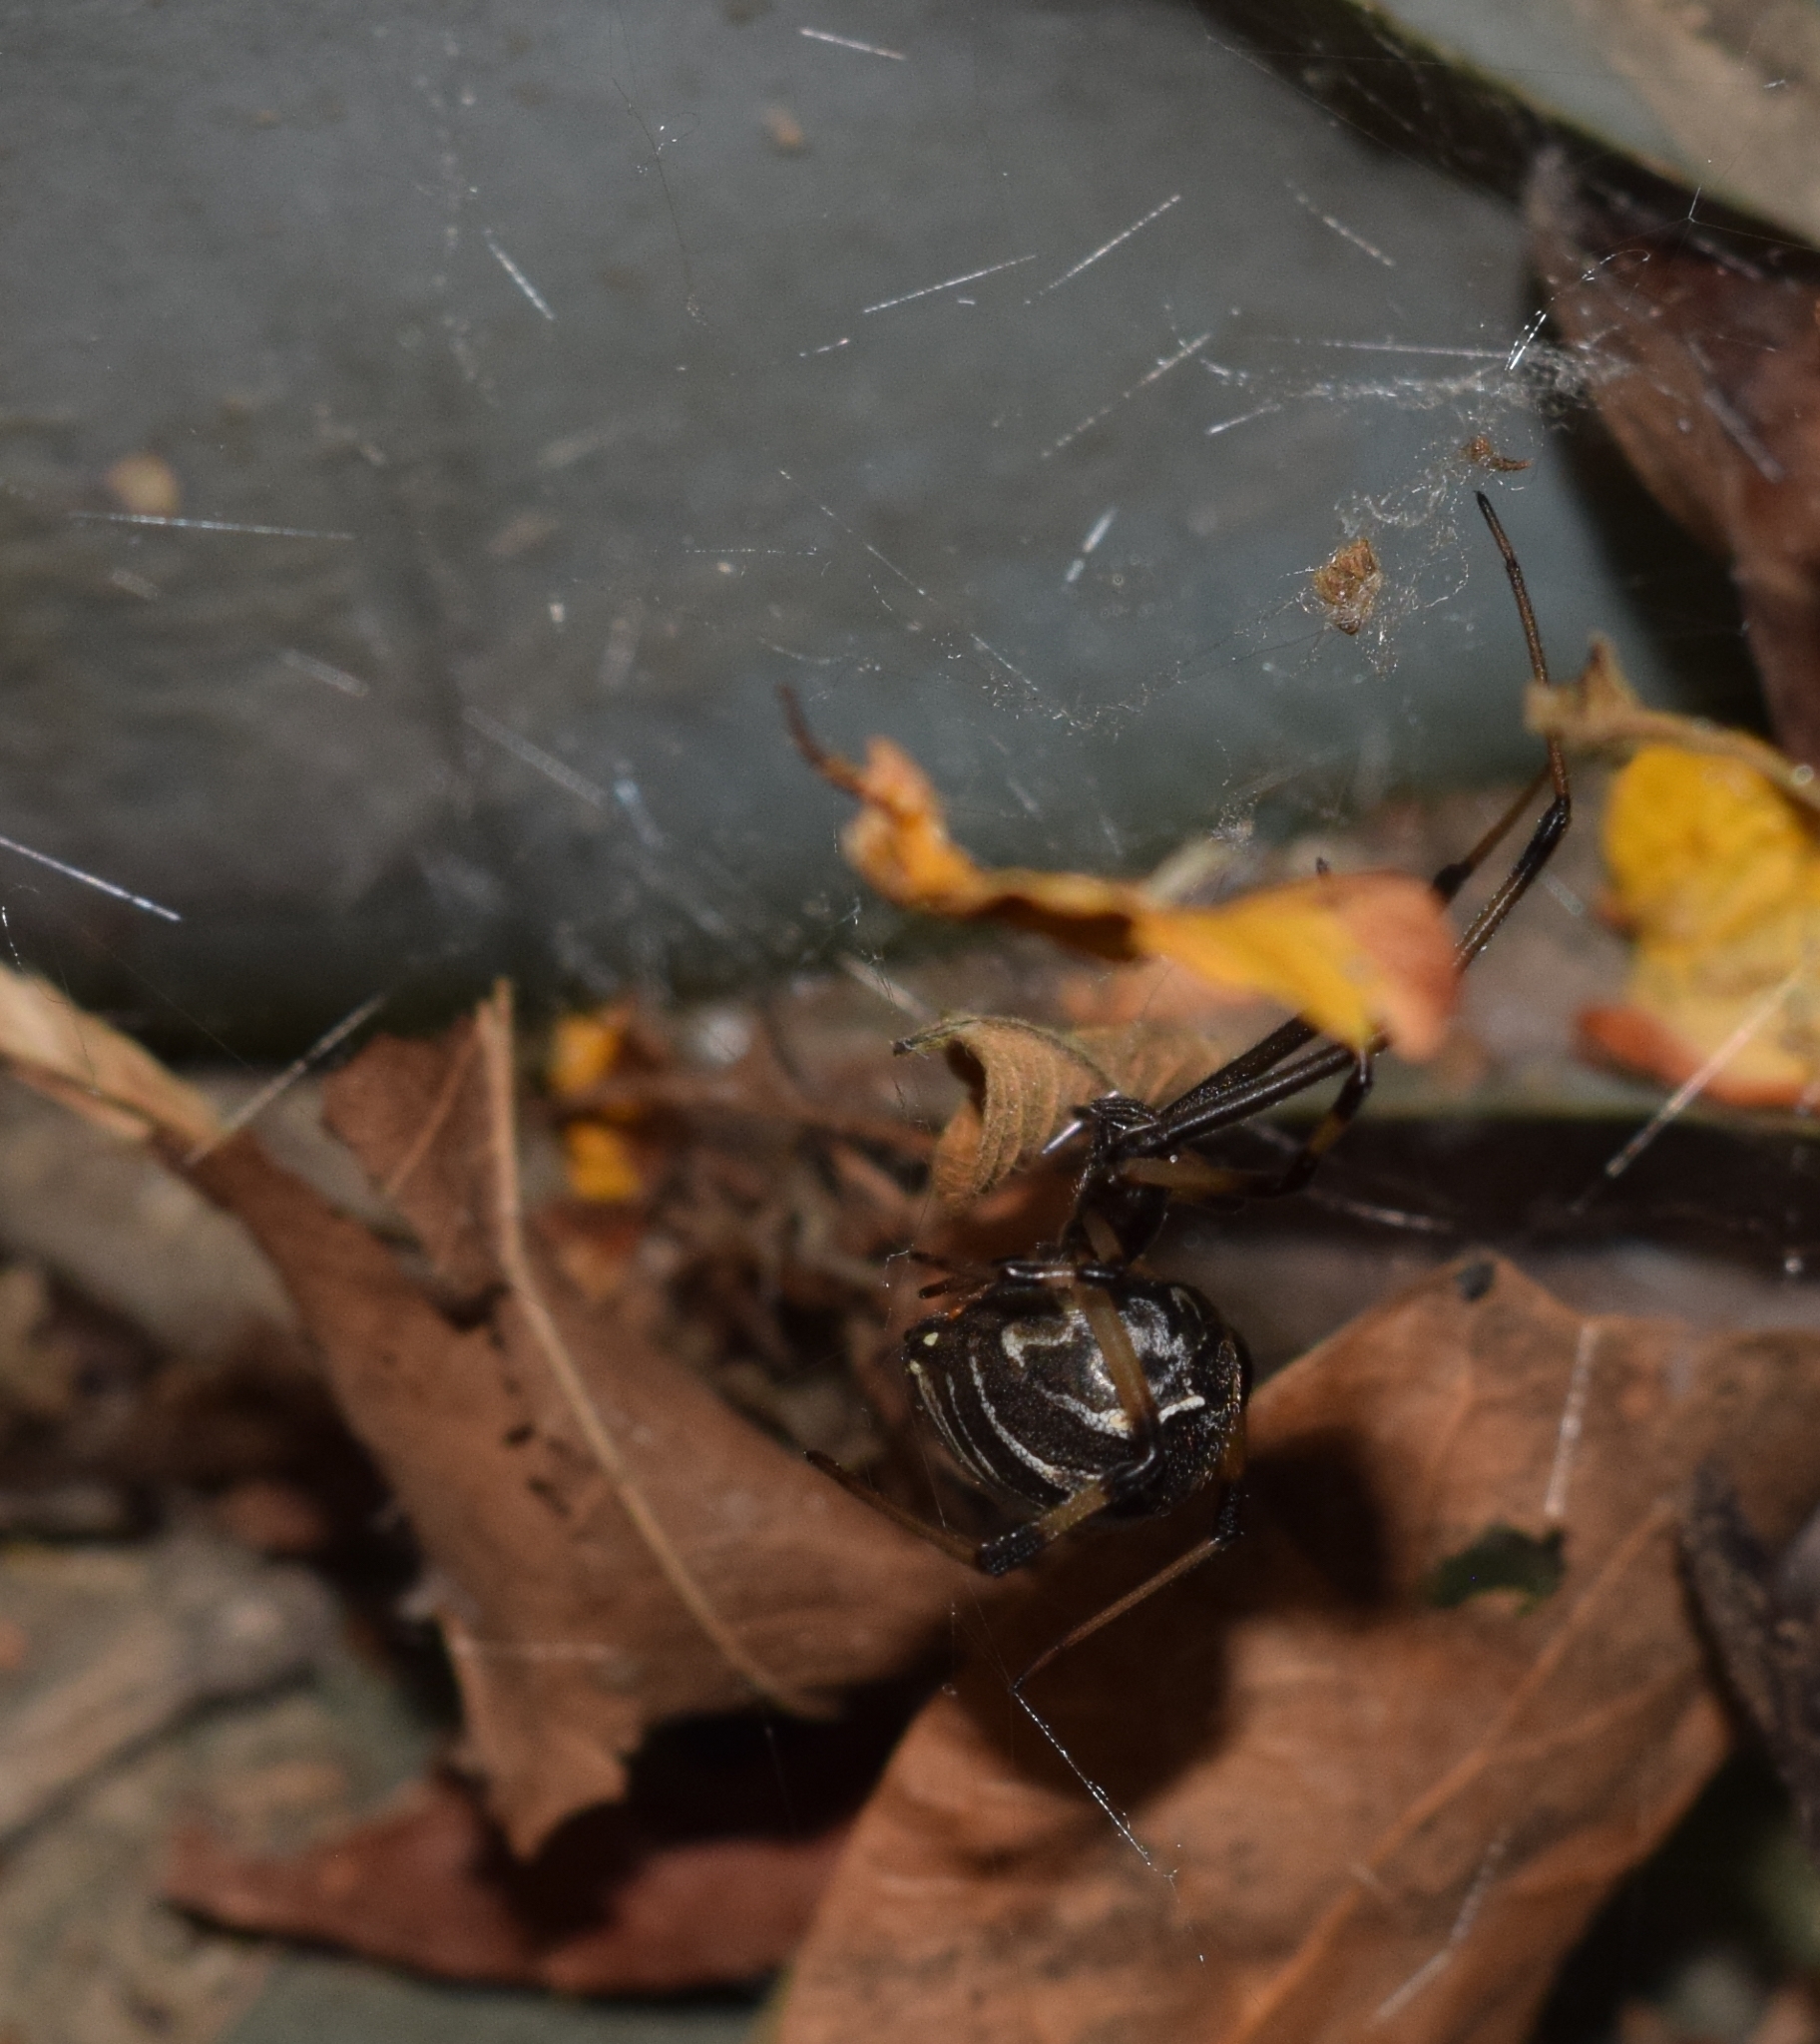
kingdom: Animalia
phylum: Arthropoda
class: Arachnida
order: Araneae
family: Theridiidae
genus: Latrodectus
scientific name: Latrodectus geometricus
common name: Brown widow spider
